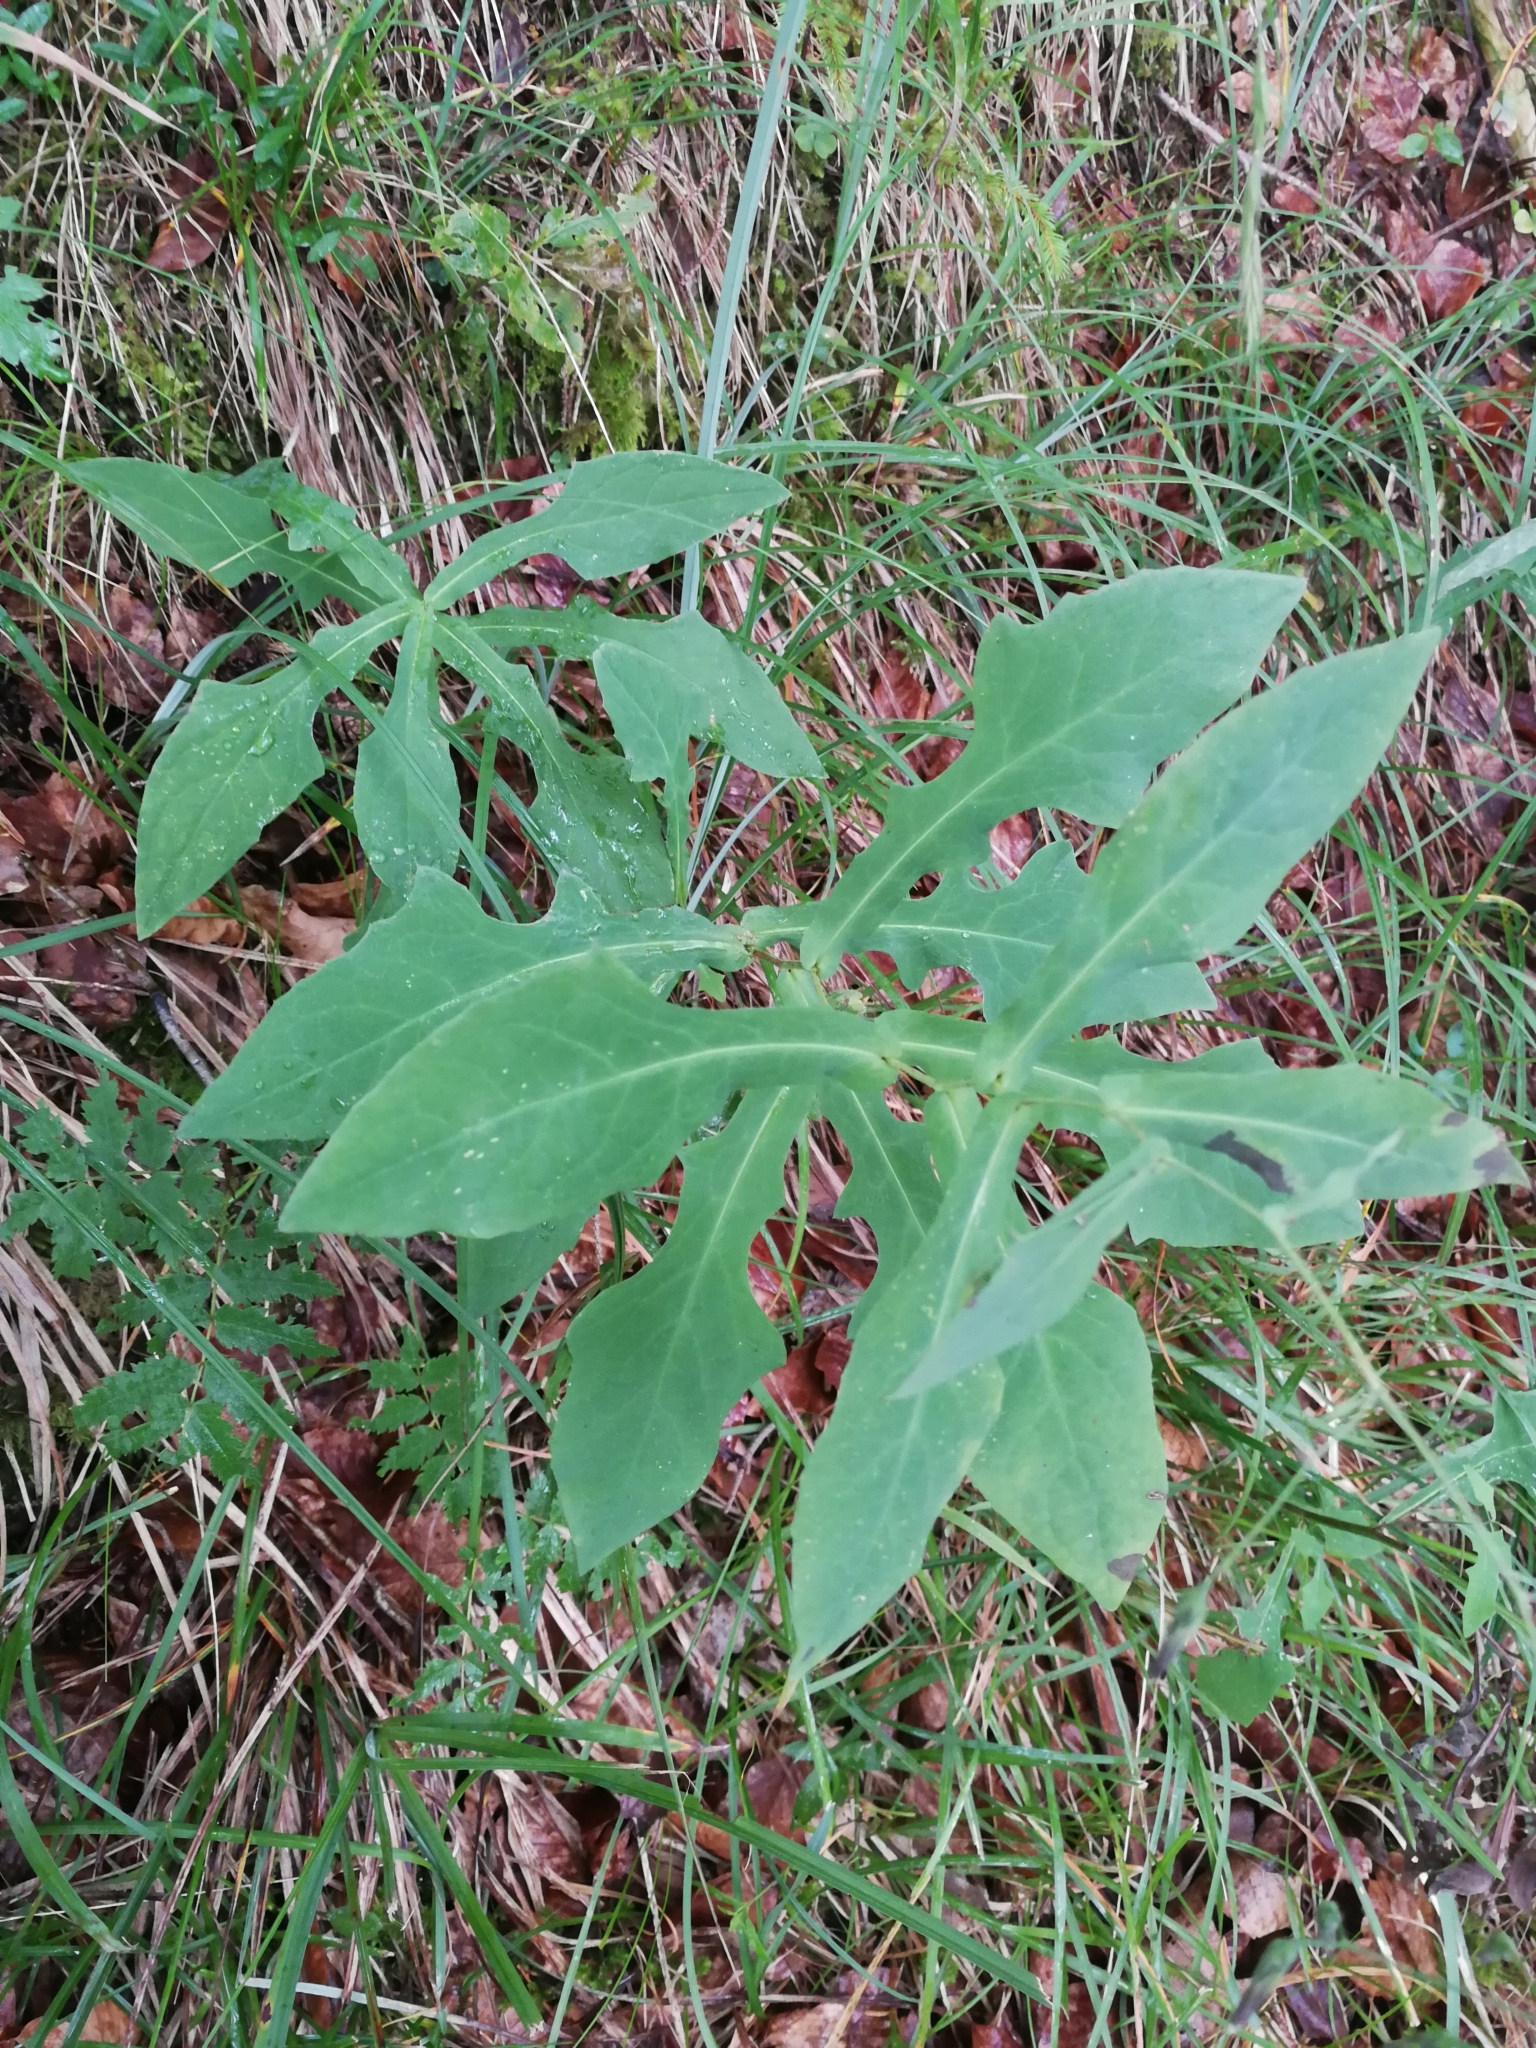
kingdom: Plantae
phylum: Tracheophyta
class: Magnoliopsida
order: Asterales
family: Asteraceae
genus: Prenanthes
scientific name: Prenanthes purpurea
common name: Purple lettuce
